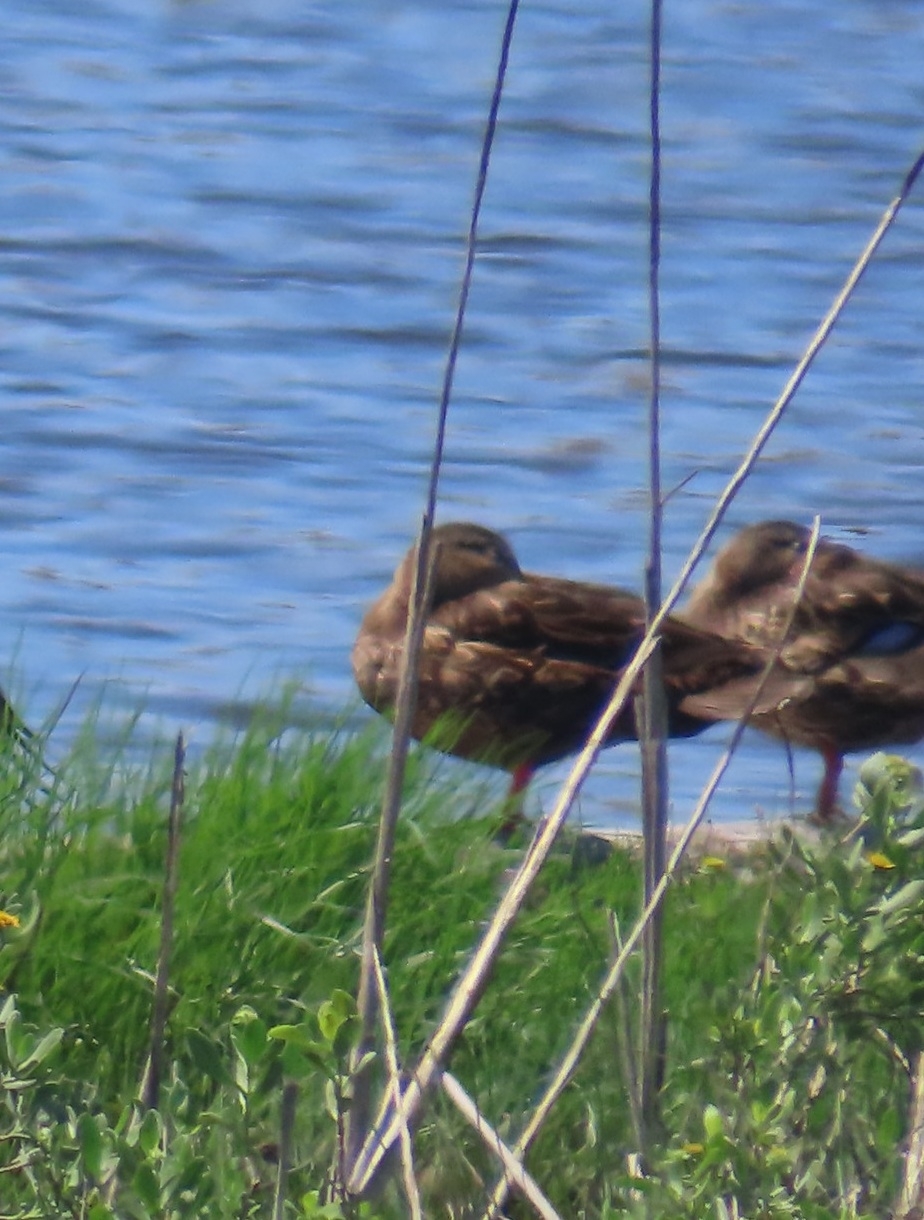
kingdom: Animalia
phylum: Chordata
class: Aves
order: Anseriformes
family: Anatidae
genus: Anas
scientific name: Anas fulvigula
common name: Mottled duck
